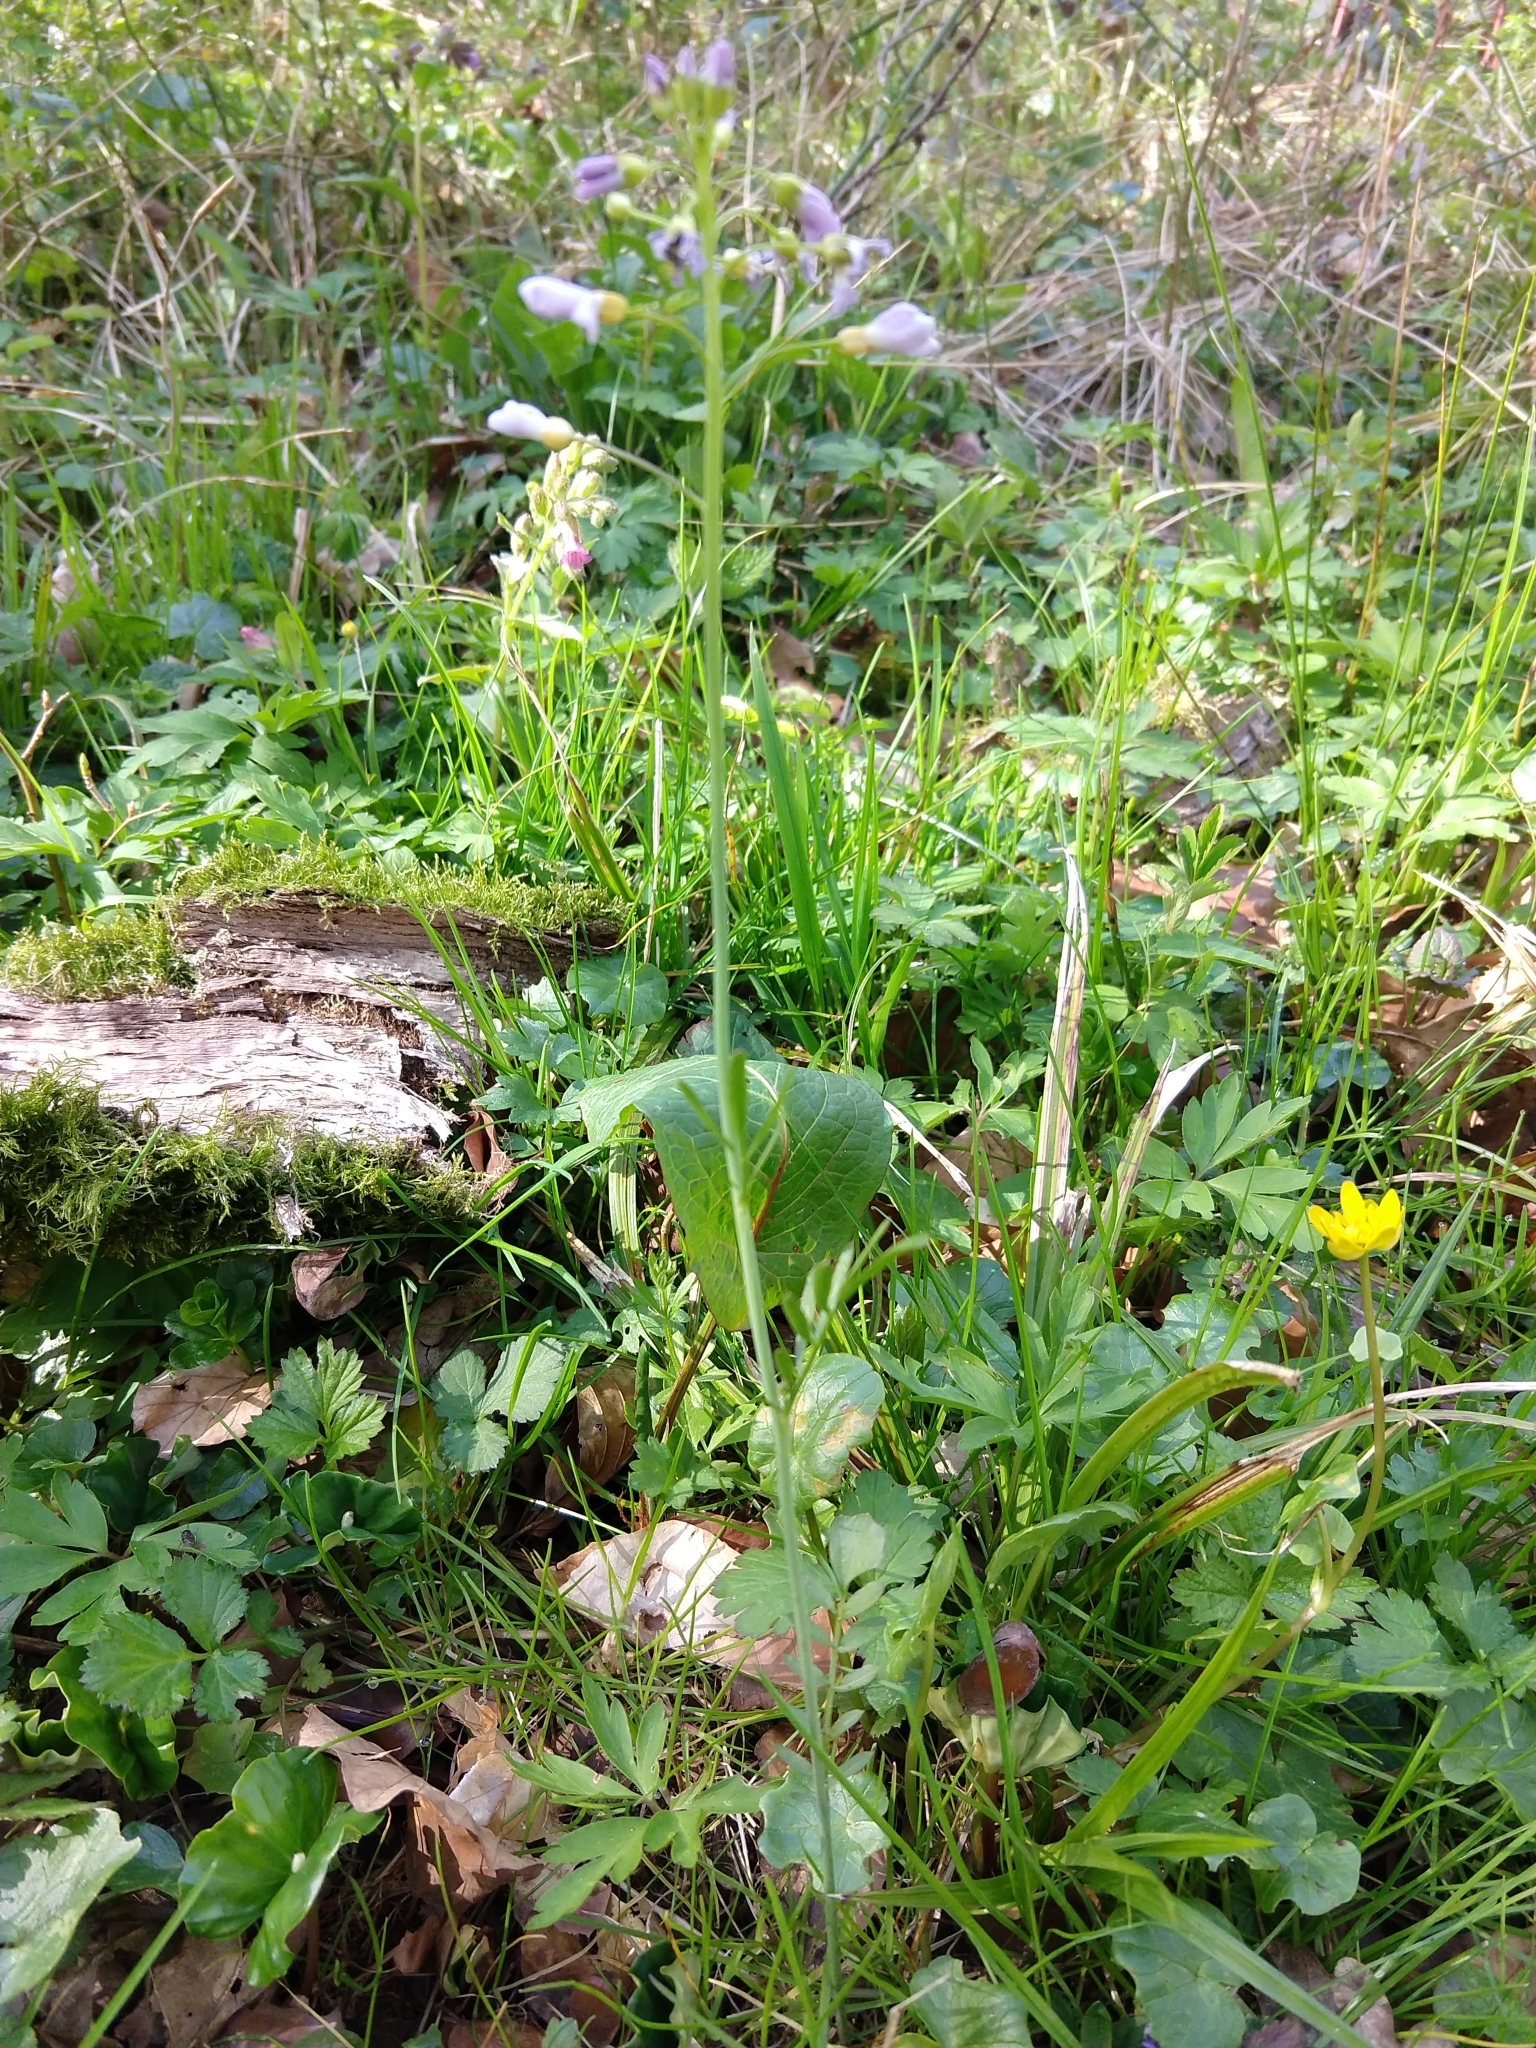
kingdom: Plantae
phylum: Tracheophyta
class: Magnoliopsida
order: Brassicales
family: Brassicaceae
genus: Cardamine
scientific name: Cardamine pratensis
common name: Cuckoo flower
